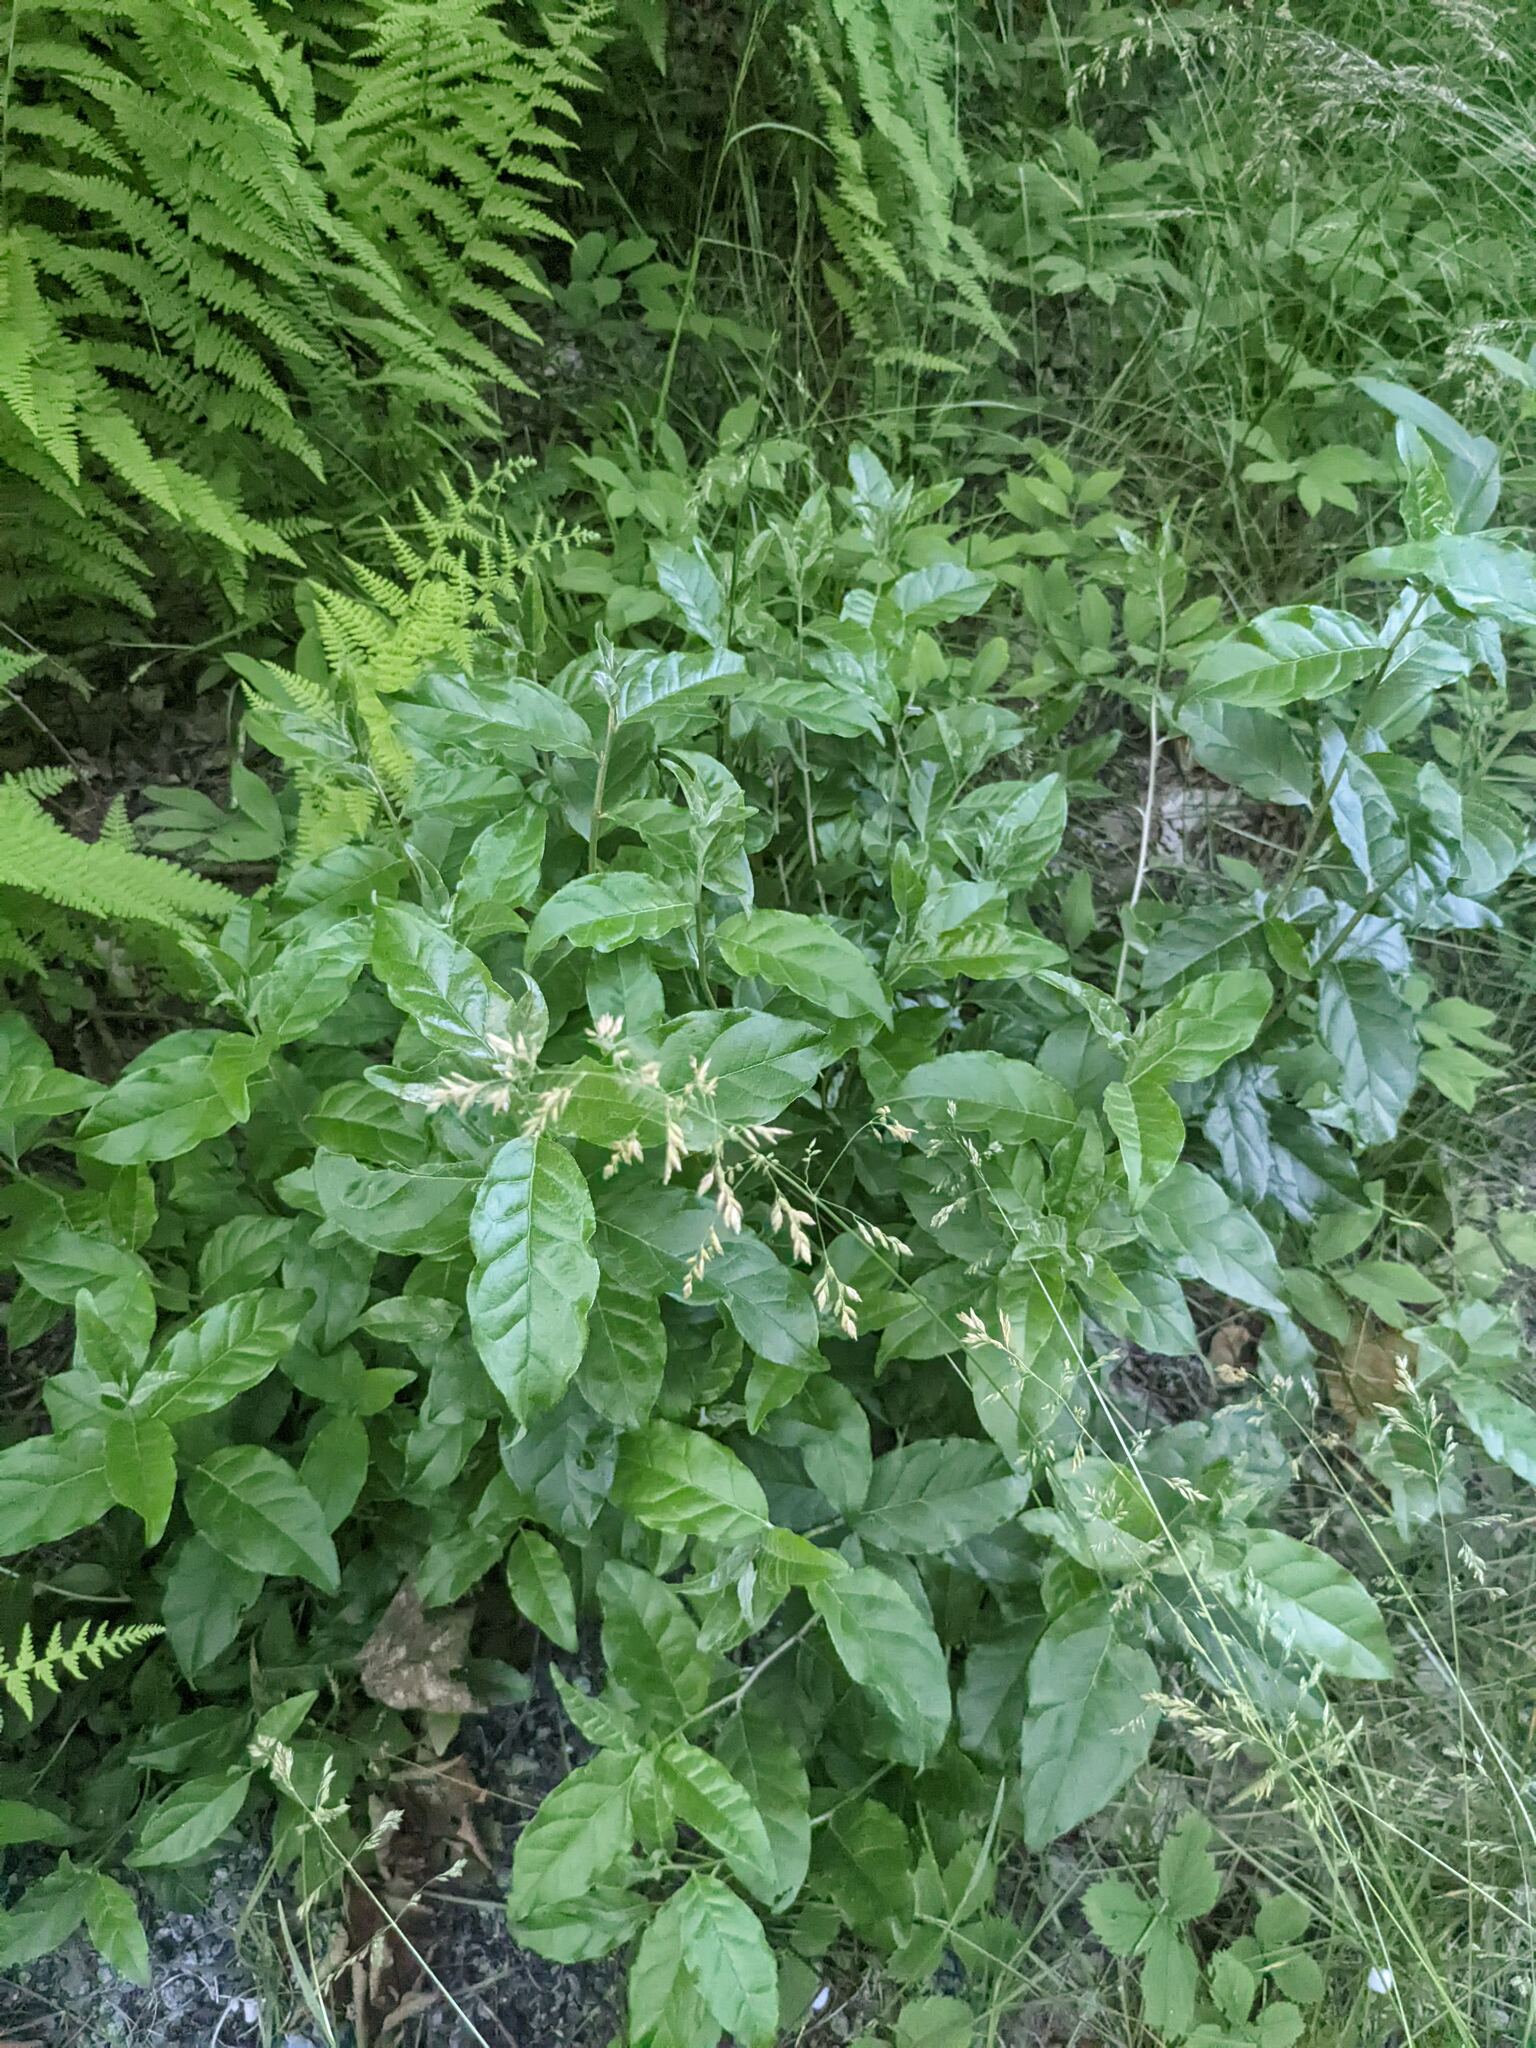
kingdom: Plantae
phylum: Tracheophyta
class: Magnoliopsida
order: Rosales
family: Elaeagnaceae
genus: Elaeagnus
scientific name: Elaeagnus umbellata
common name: Autumn olive
